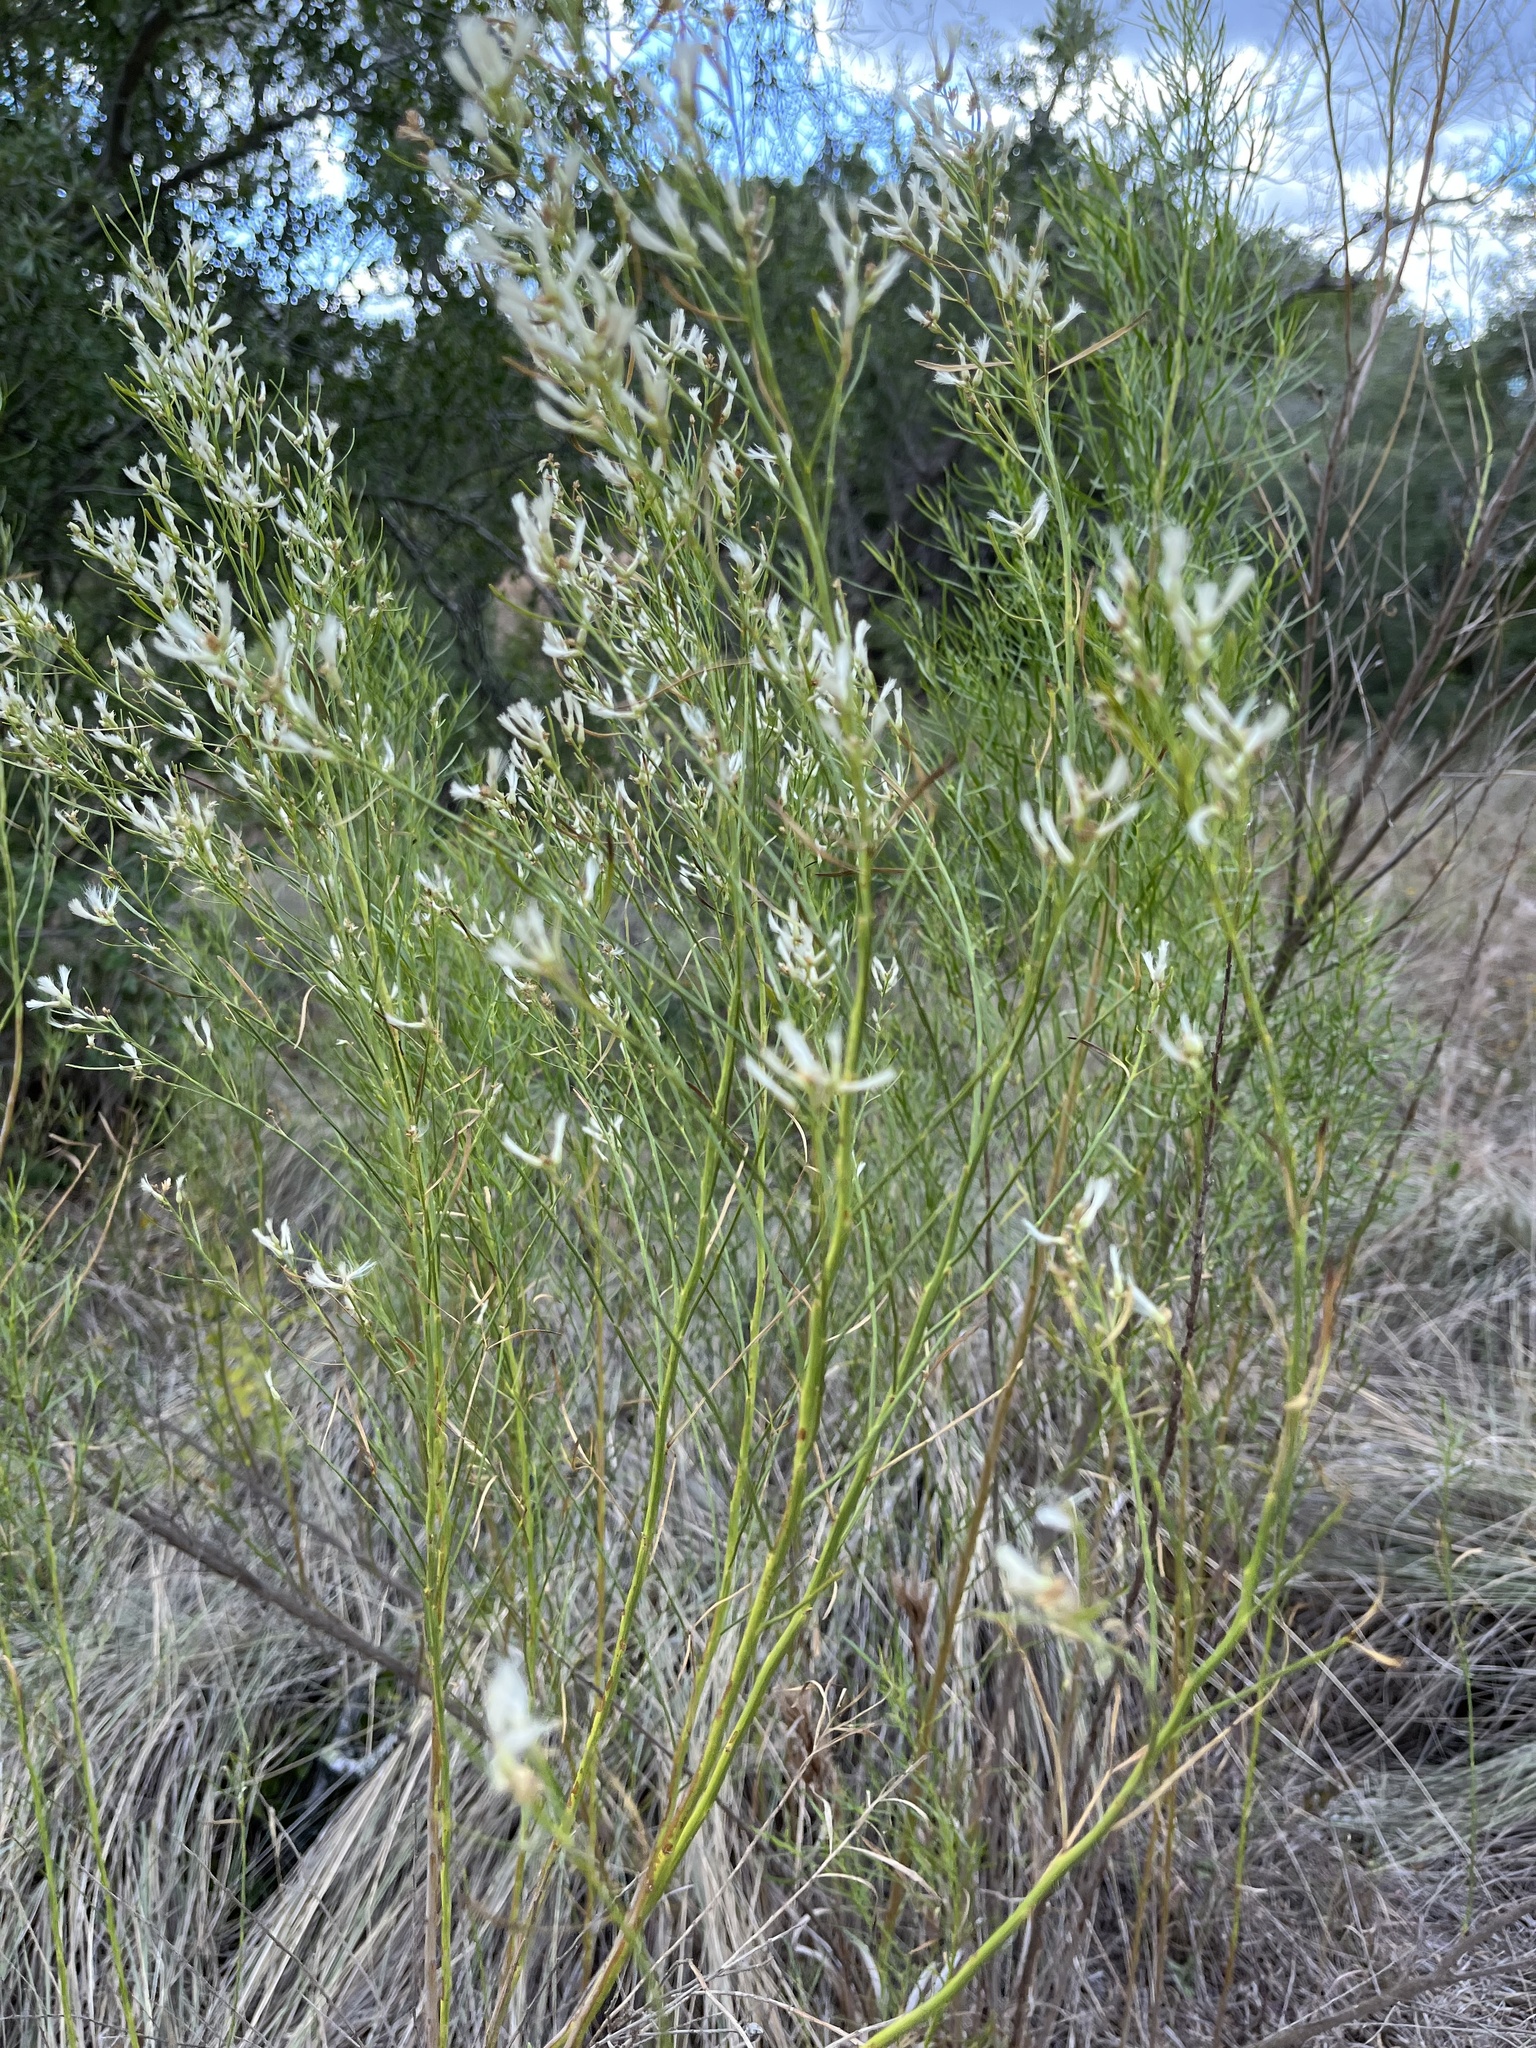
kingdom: Plantae
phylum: Tracheophyta
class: Magnoliopsida
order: Asterales
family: Asteraceae
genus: Baccharis
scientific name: Baccharis neglecta
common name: Roosevelt-weed
